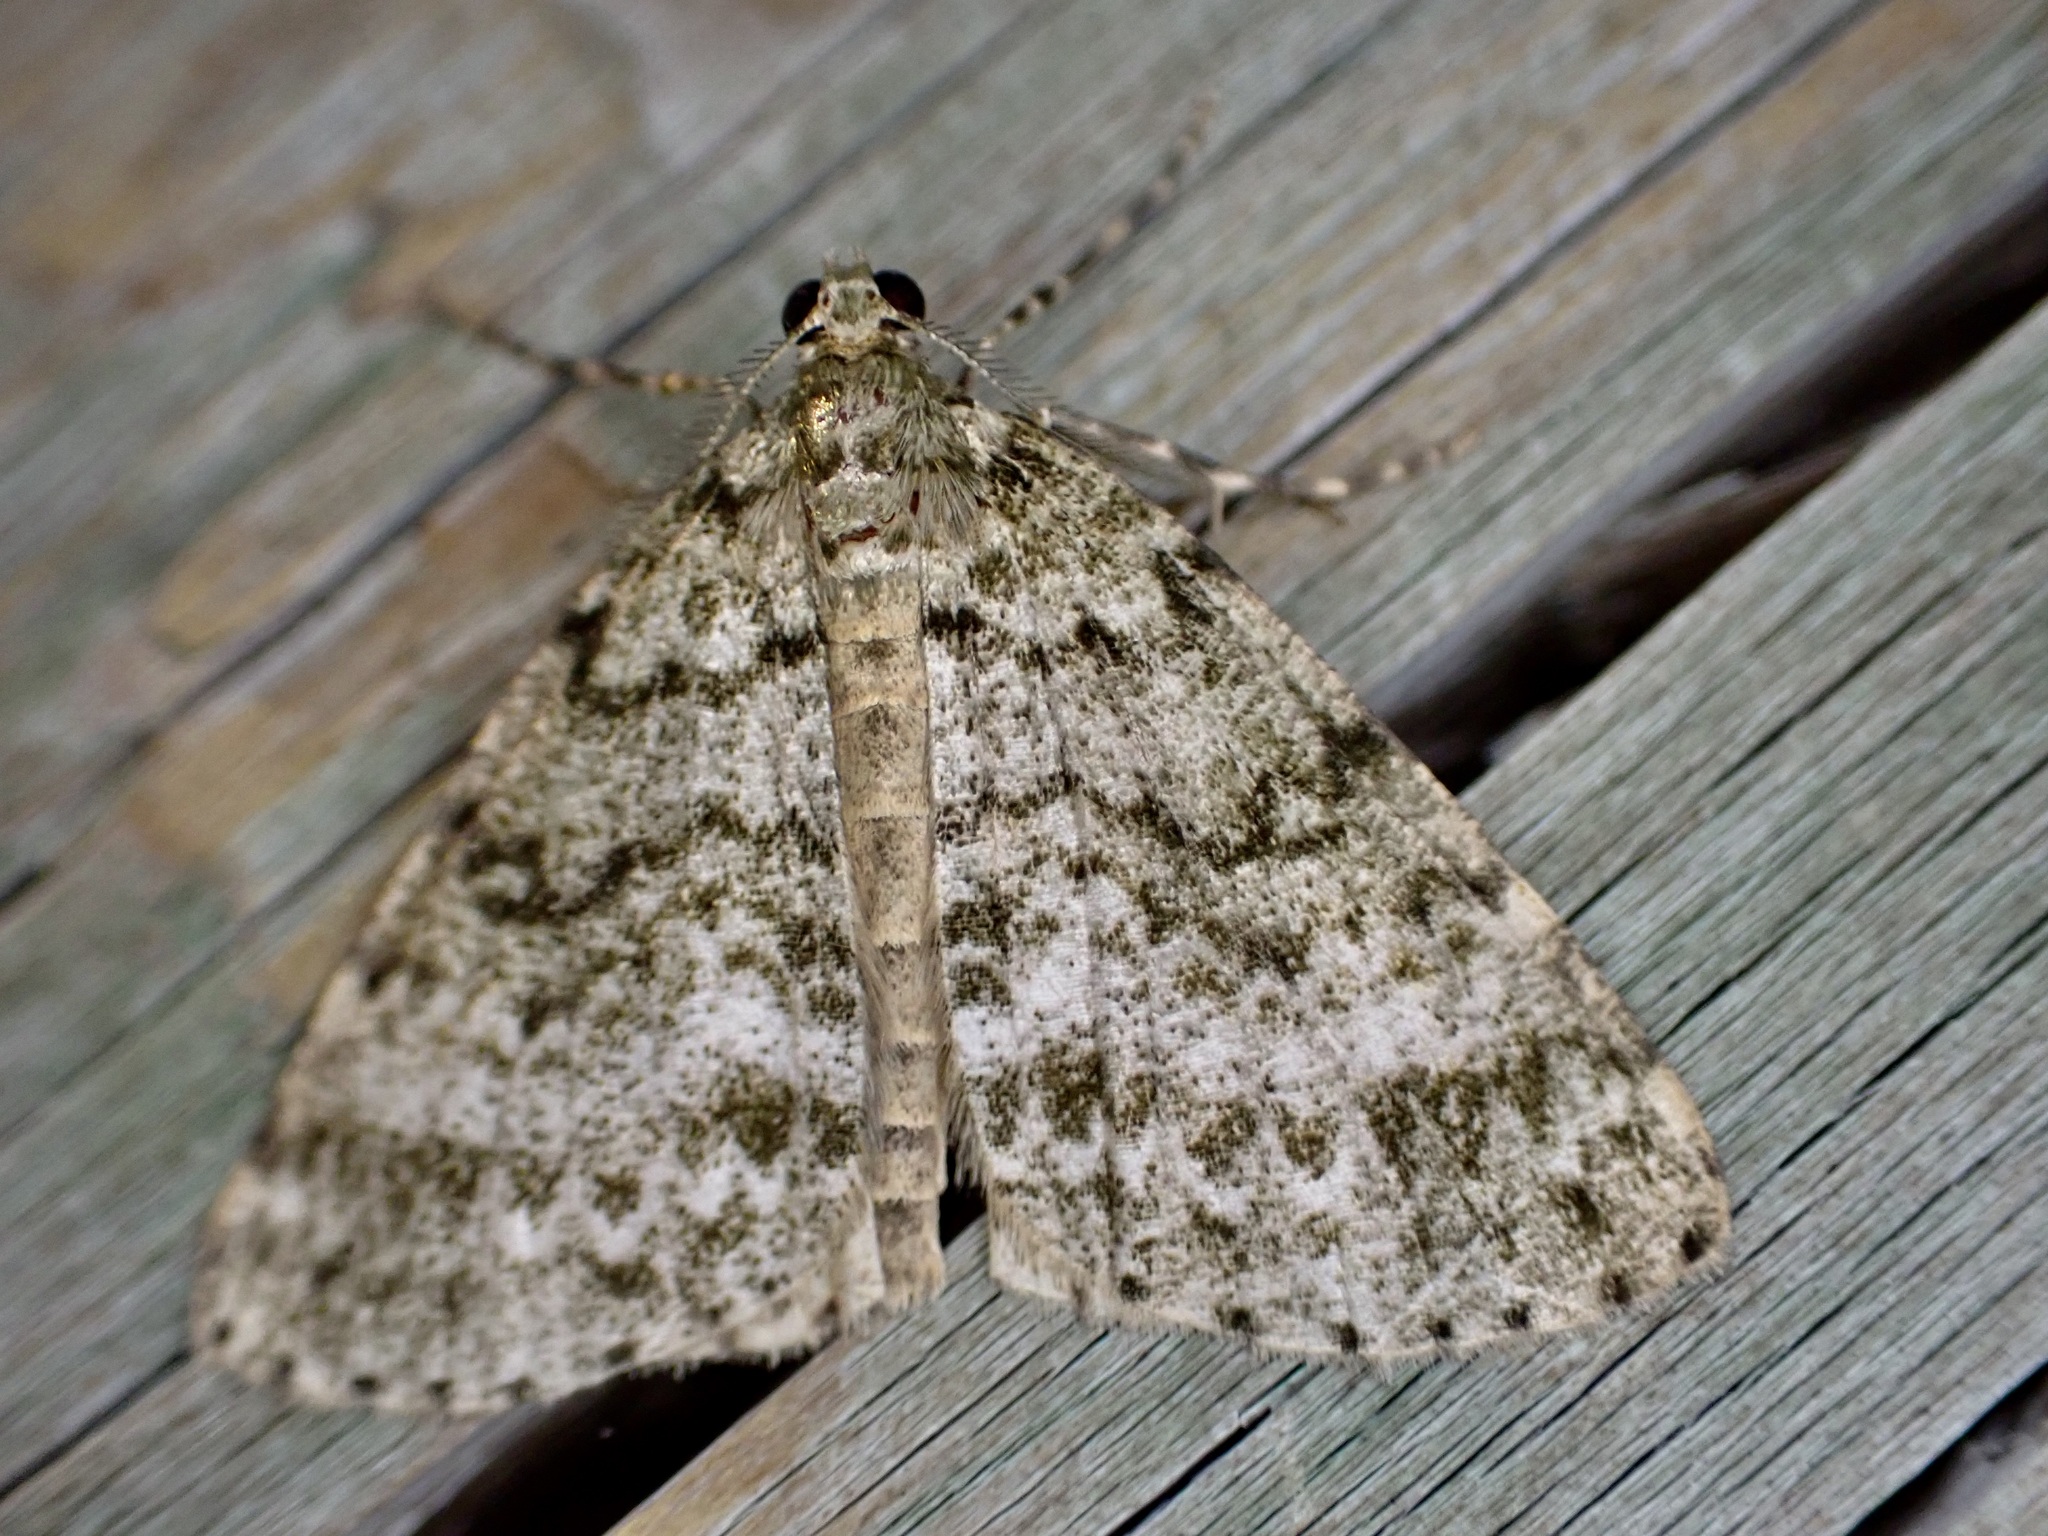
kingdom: Animalia
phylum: Arthropoda
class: Insecta
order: Lepidoptera
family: Geometridae
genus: Pseudocoremia
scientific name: Pseudocoremia indistincta
